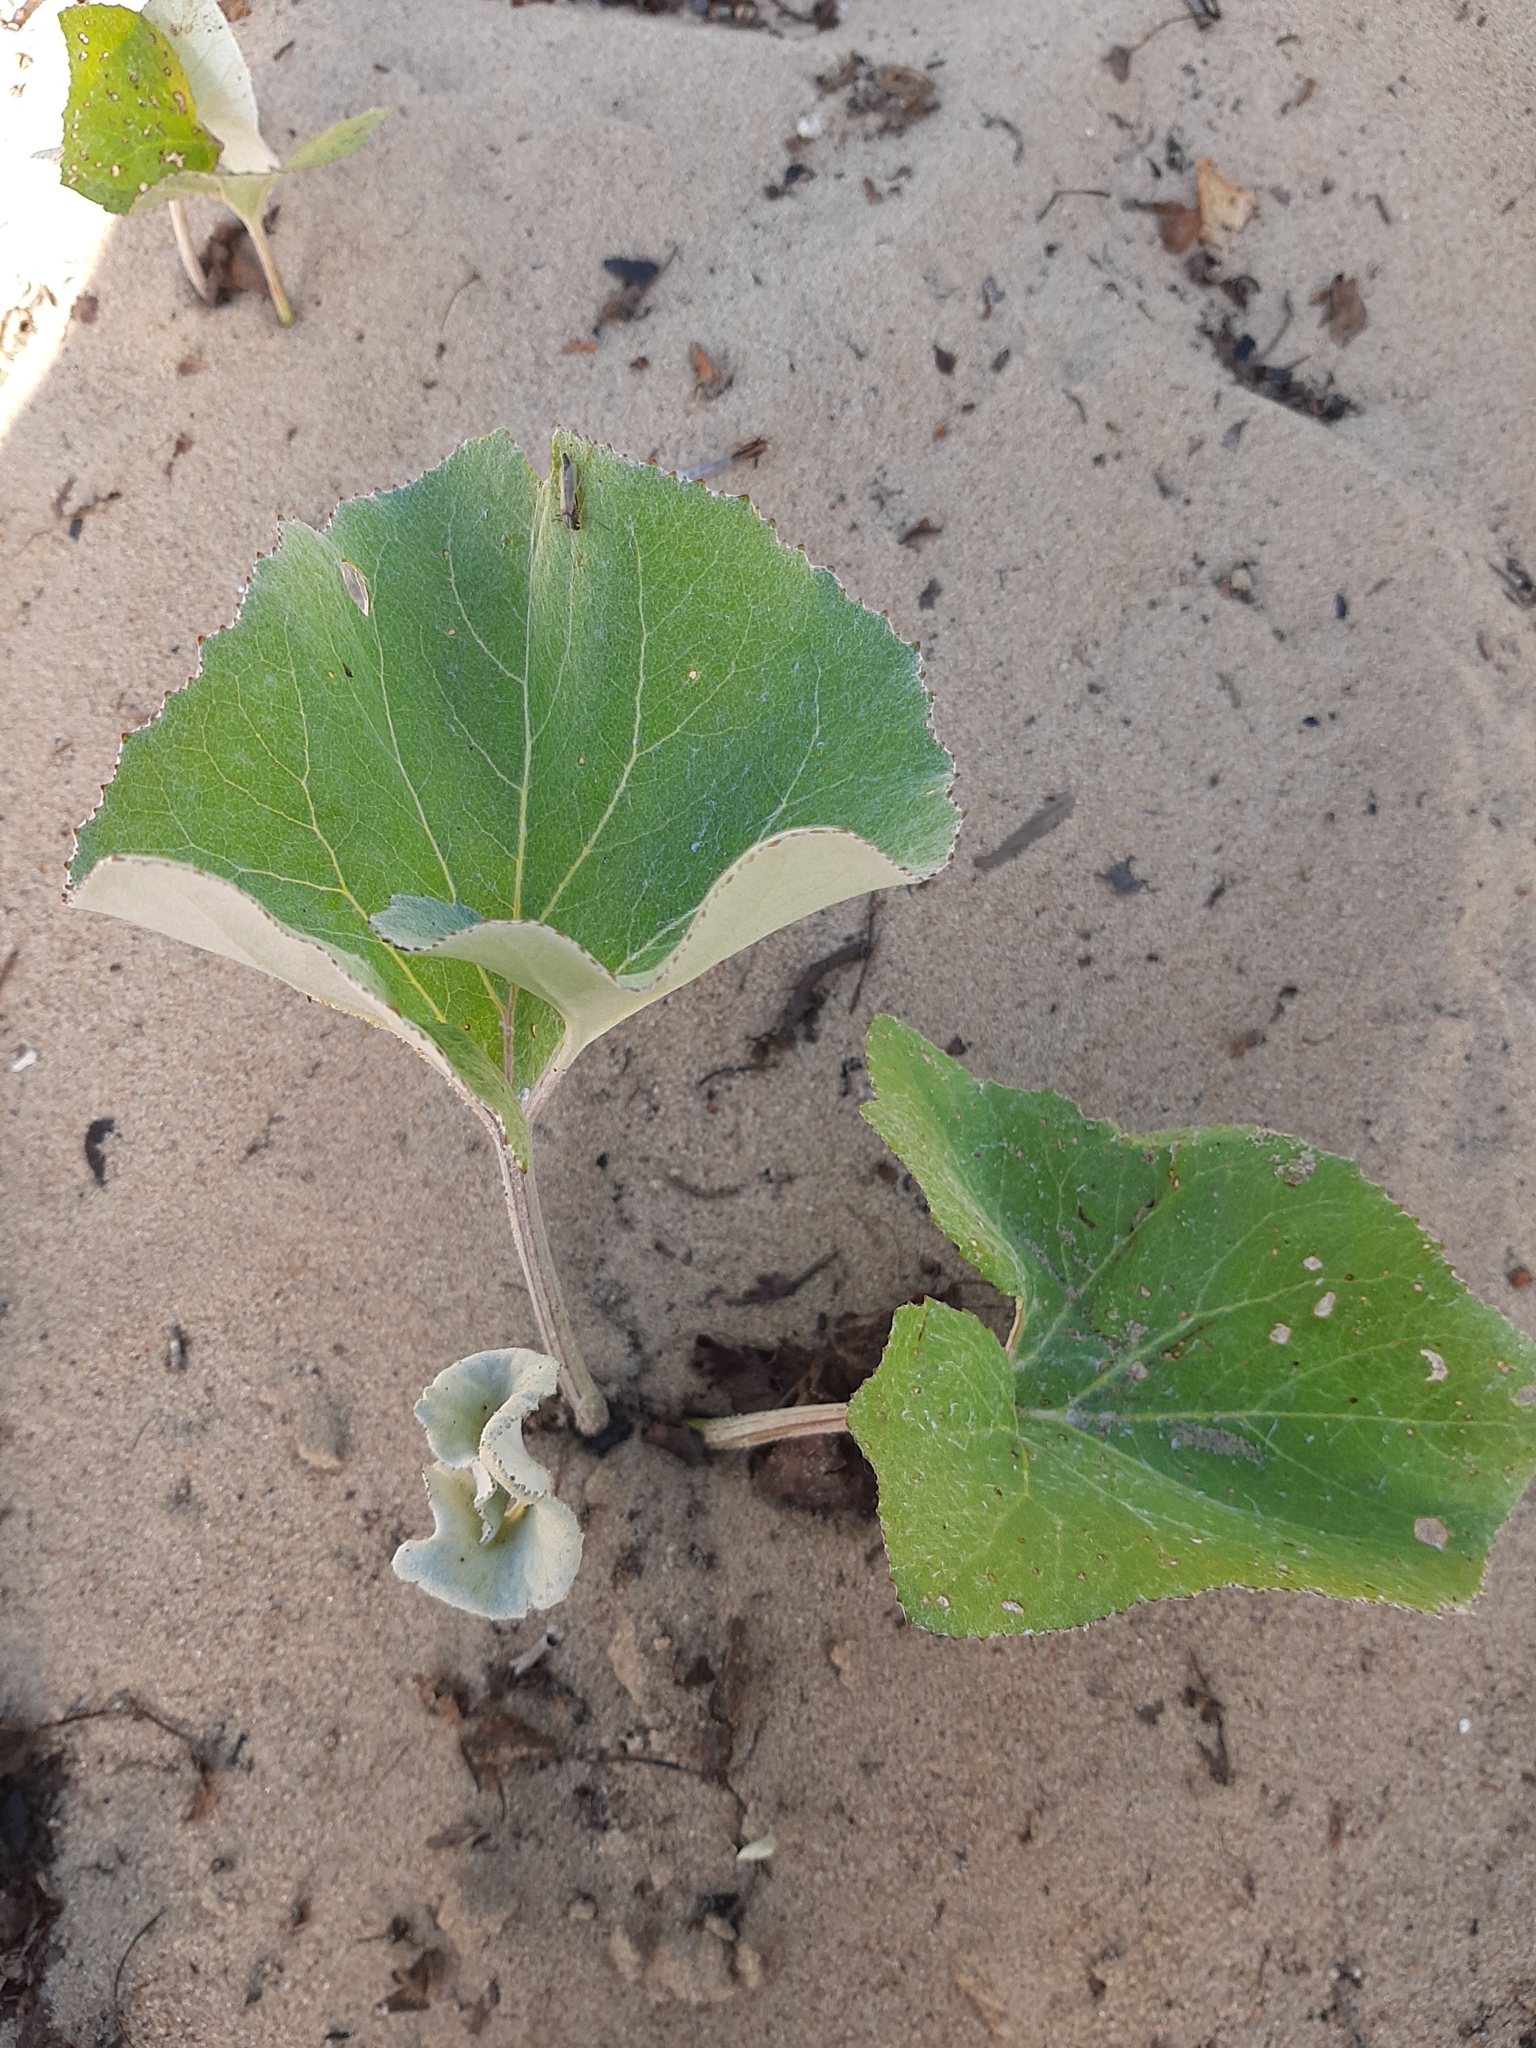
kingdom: Plantae
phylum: Tracheophyta
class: Magnoliopsida
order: Asterales
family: Asteraceae
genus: Petasites
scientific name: Petasites spurius
